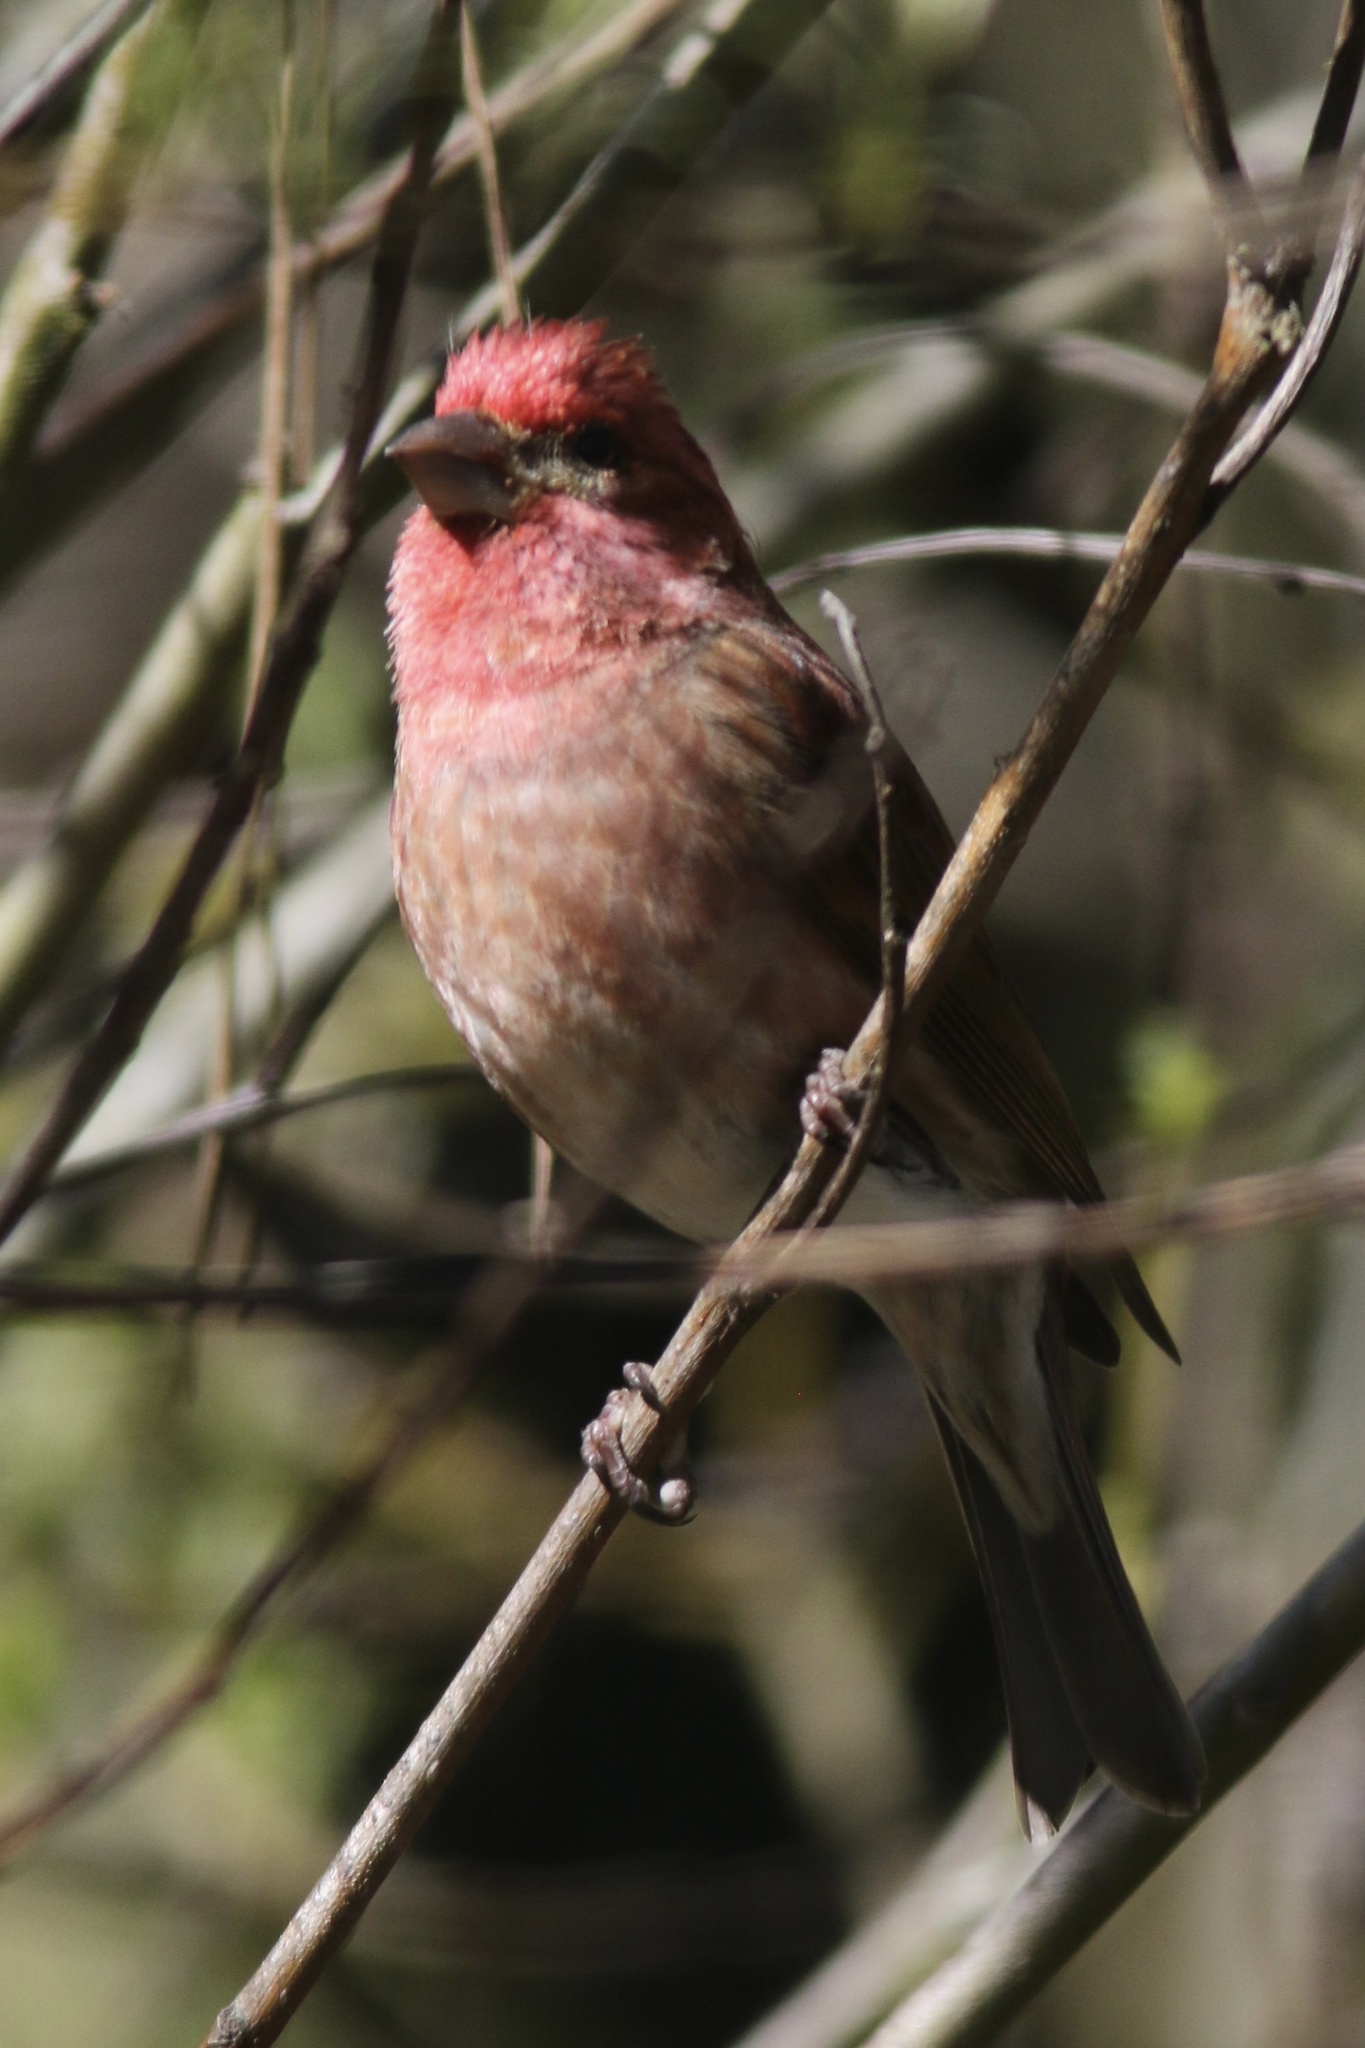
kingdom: Animalia
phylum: Chordata
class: Aves
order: Passeriformes
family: Fringillidae
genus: Haemorhous
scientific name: Haemorhous purpureus
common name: Purple finch
